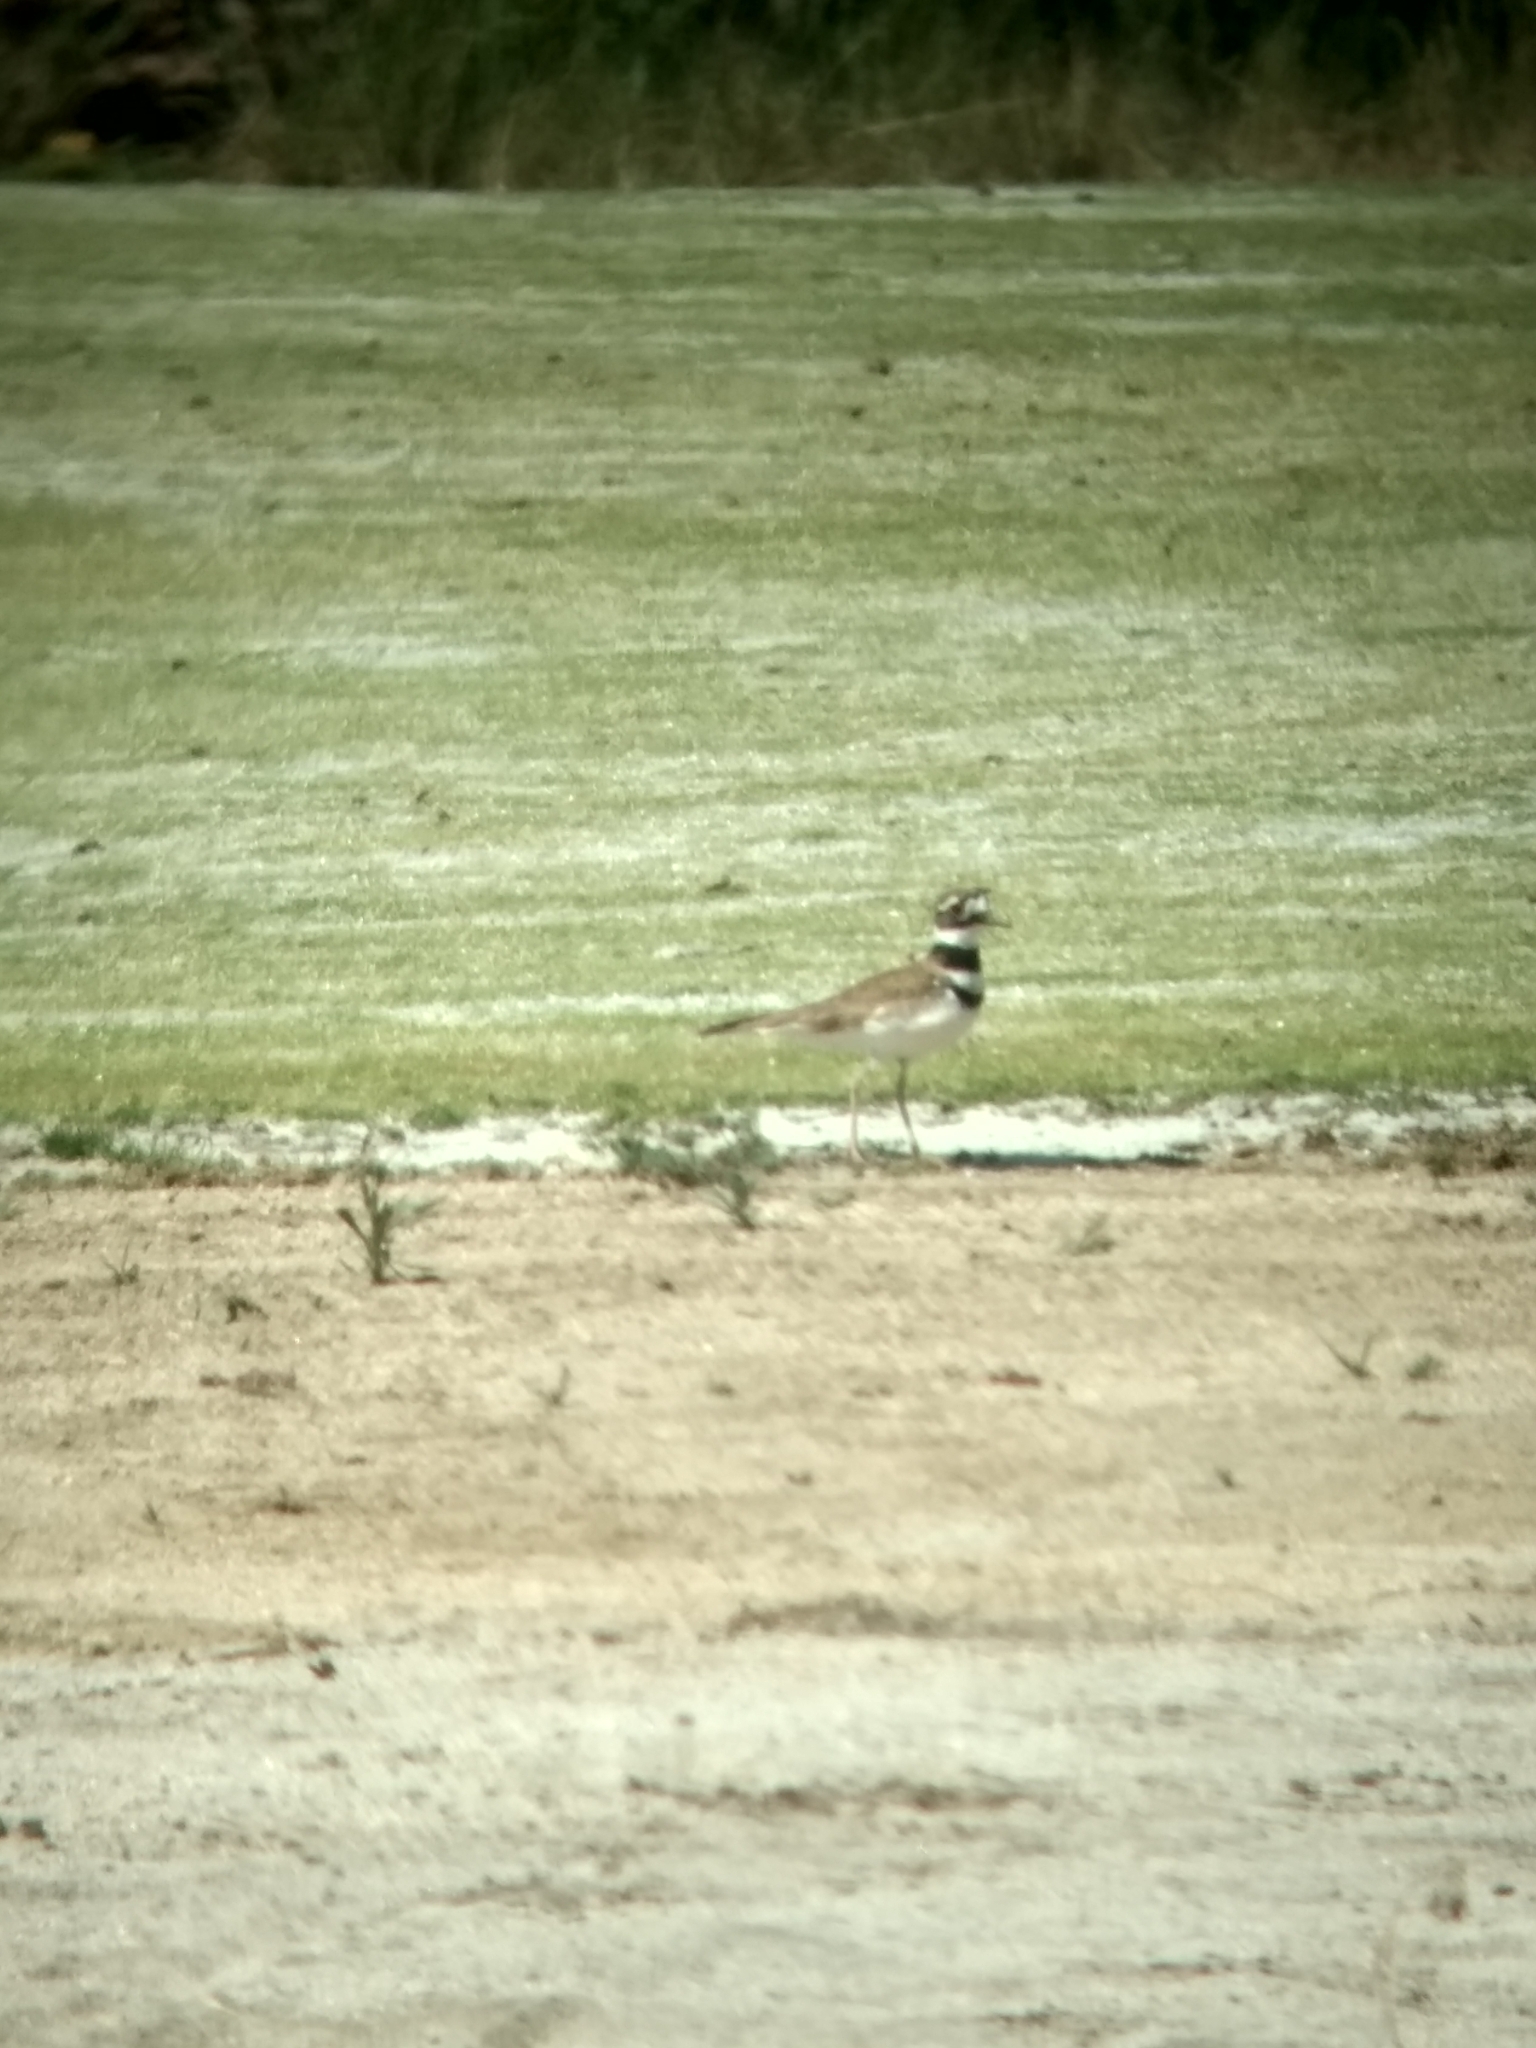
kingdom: Animalia
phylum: Chordata
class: Aves
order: Charadriiformes
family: Charadriidae
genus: Charadrius
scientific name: Charadrius vociferus
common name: Killdeer
